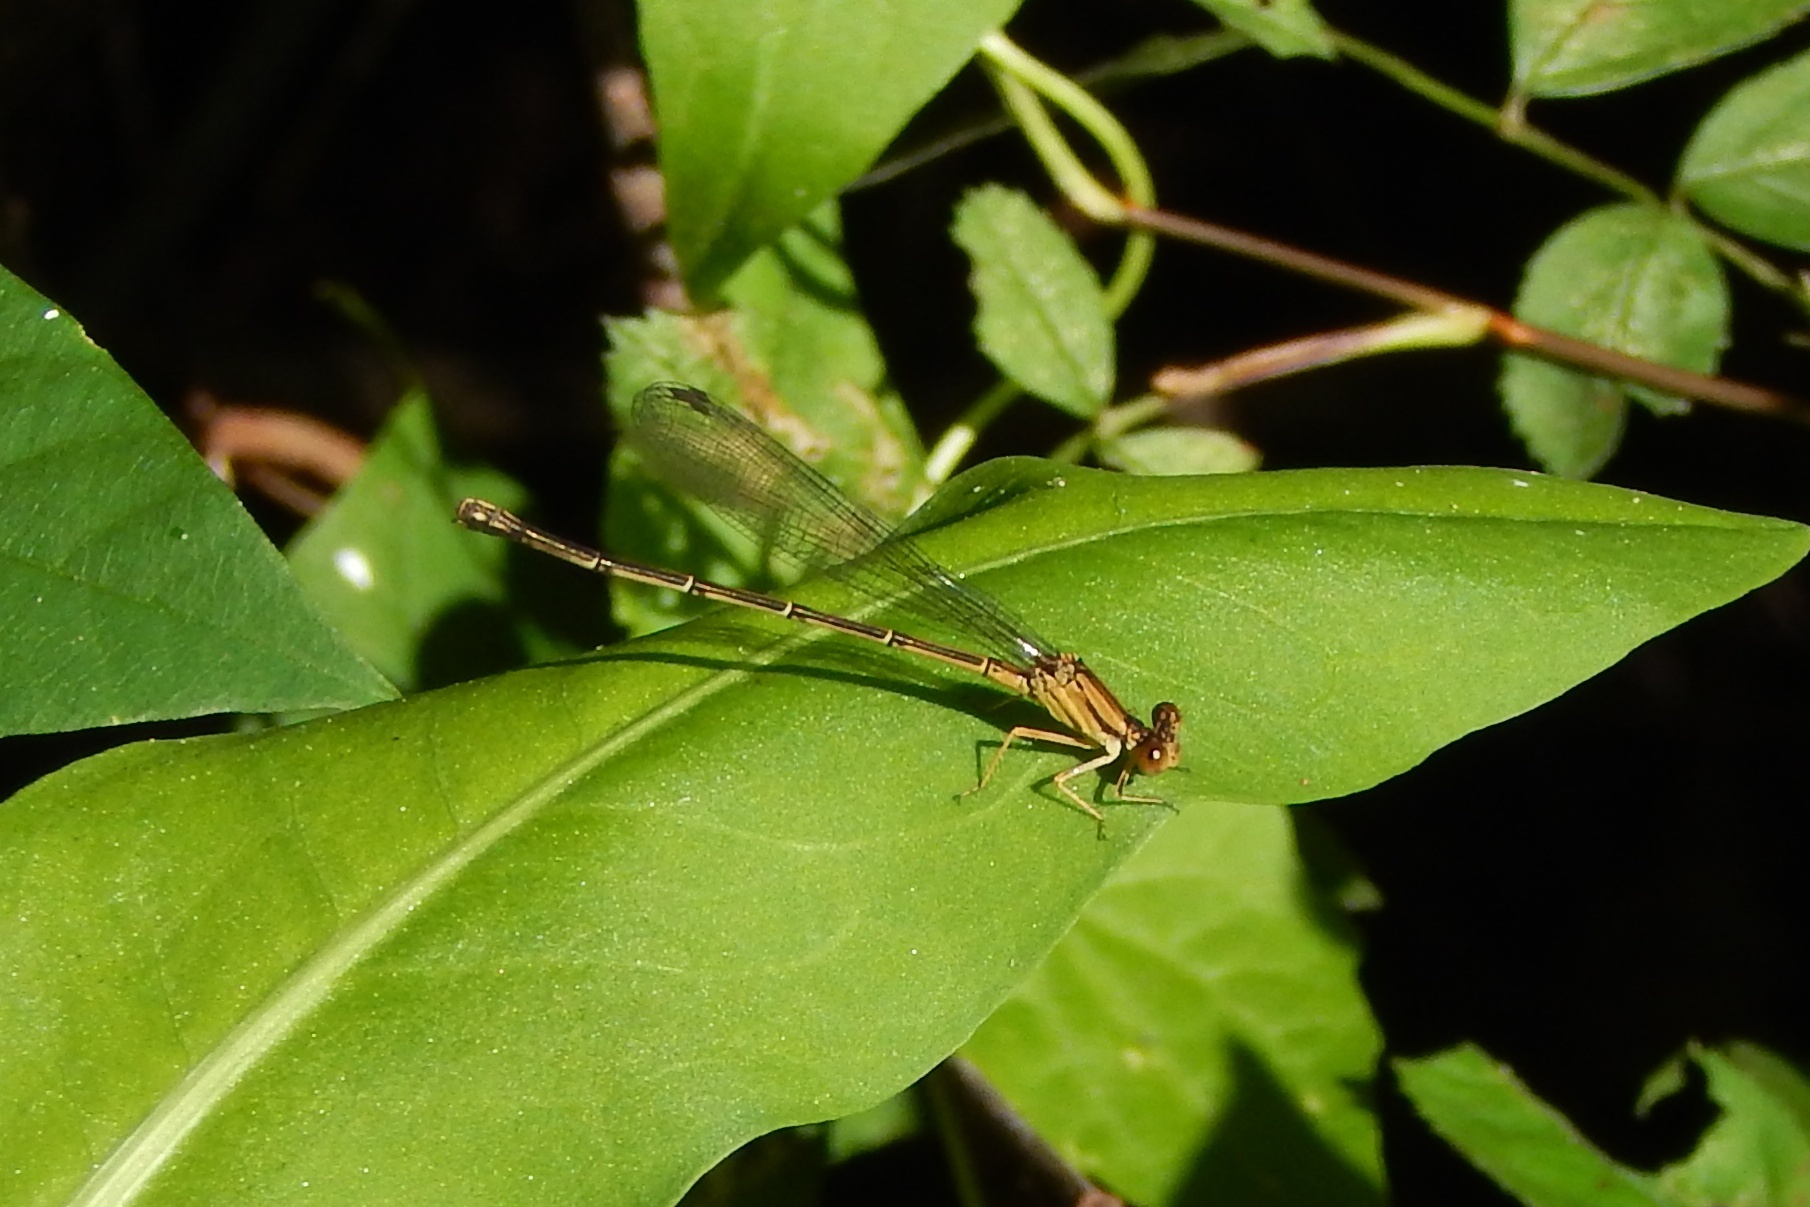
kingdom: Animalia
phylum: Arthropoda
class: Insecta
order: Odonata
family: Coenagrionidae
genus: Argia
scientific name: Argia apicalis
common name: Blue-fronted dancer
